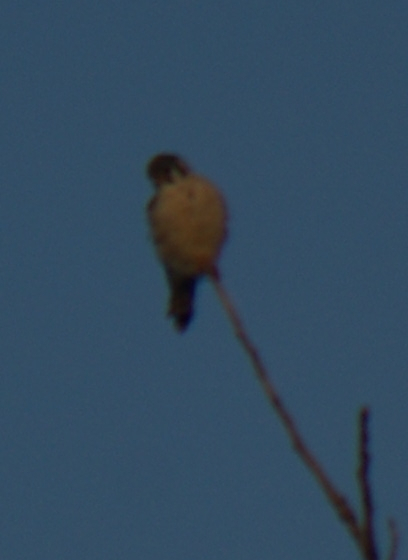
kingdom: Animalia
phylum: Chordata
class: Aves
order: Falconiformes
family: Falconidae
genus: Falco
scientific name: Falco sparverius
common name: American kestrel
